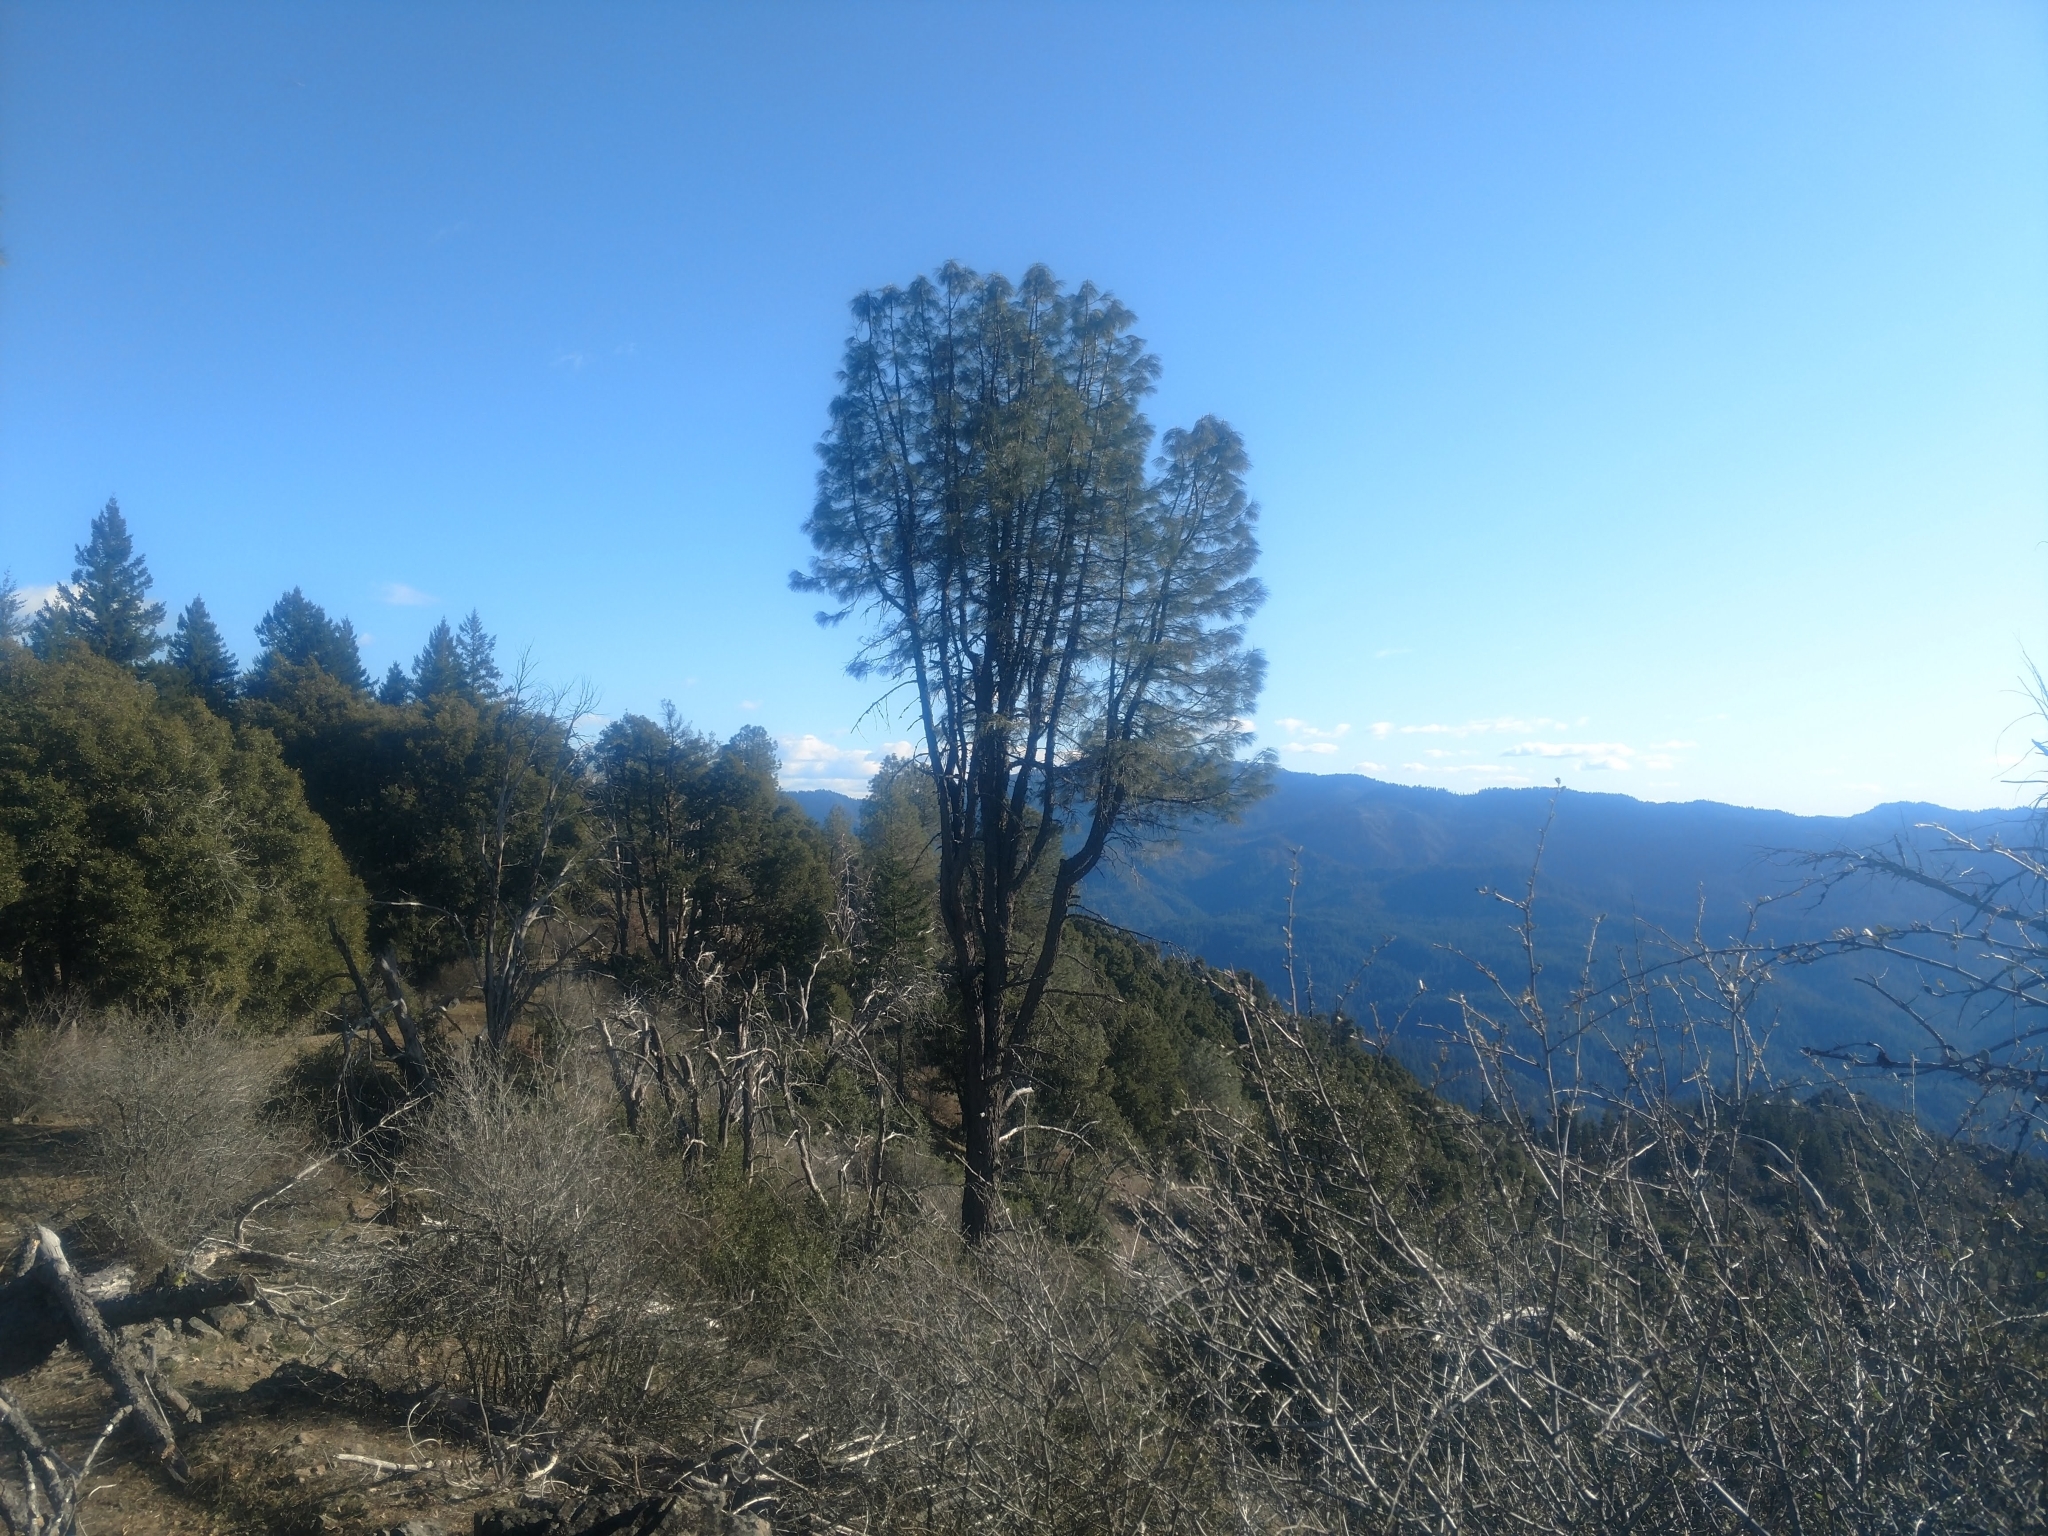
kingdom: Plantae
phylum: Tracheophyta
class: Pinopsida
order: Pinales
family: Pinaceae
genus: Pinus
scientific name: Pinus sabiniana
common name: Bull pine
